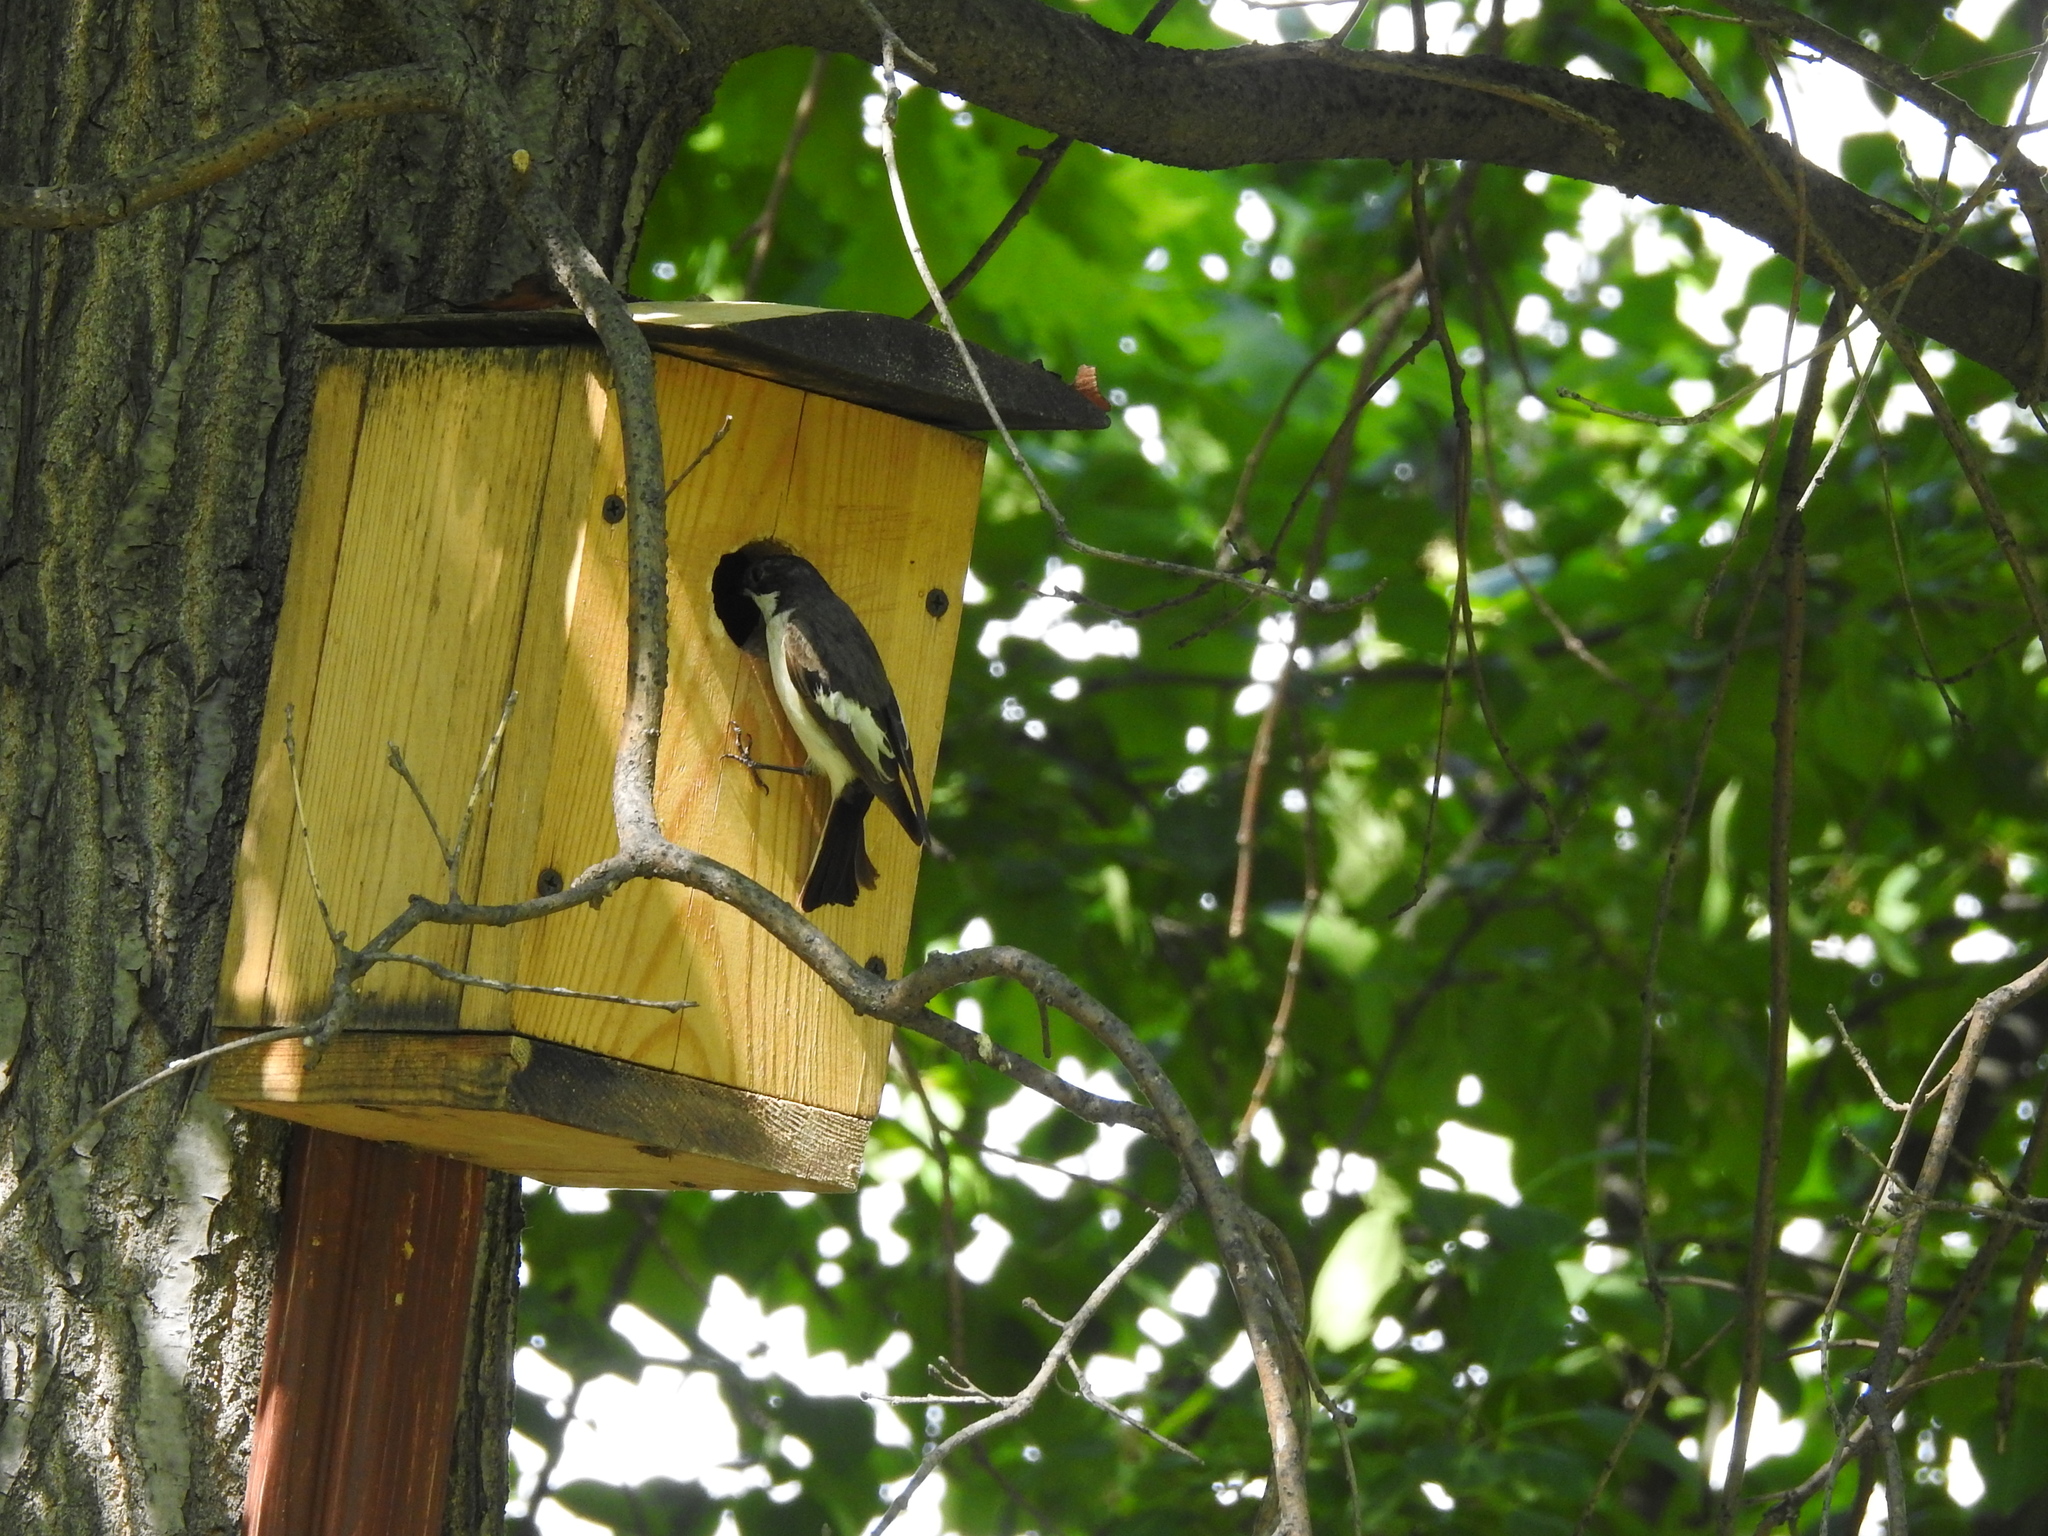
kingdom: Animalia
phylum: Chordata
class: Aves
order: Passeriformes
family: Muscicapidae
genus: Ficedula
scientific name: Ficedula hypoleuca
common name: European pied flycatcher
